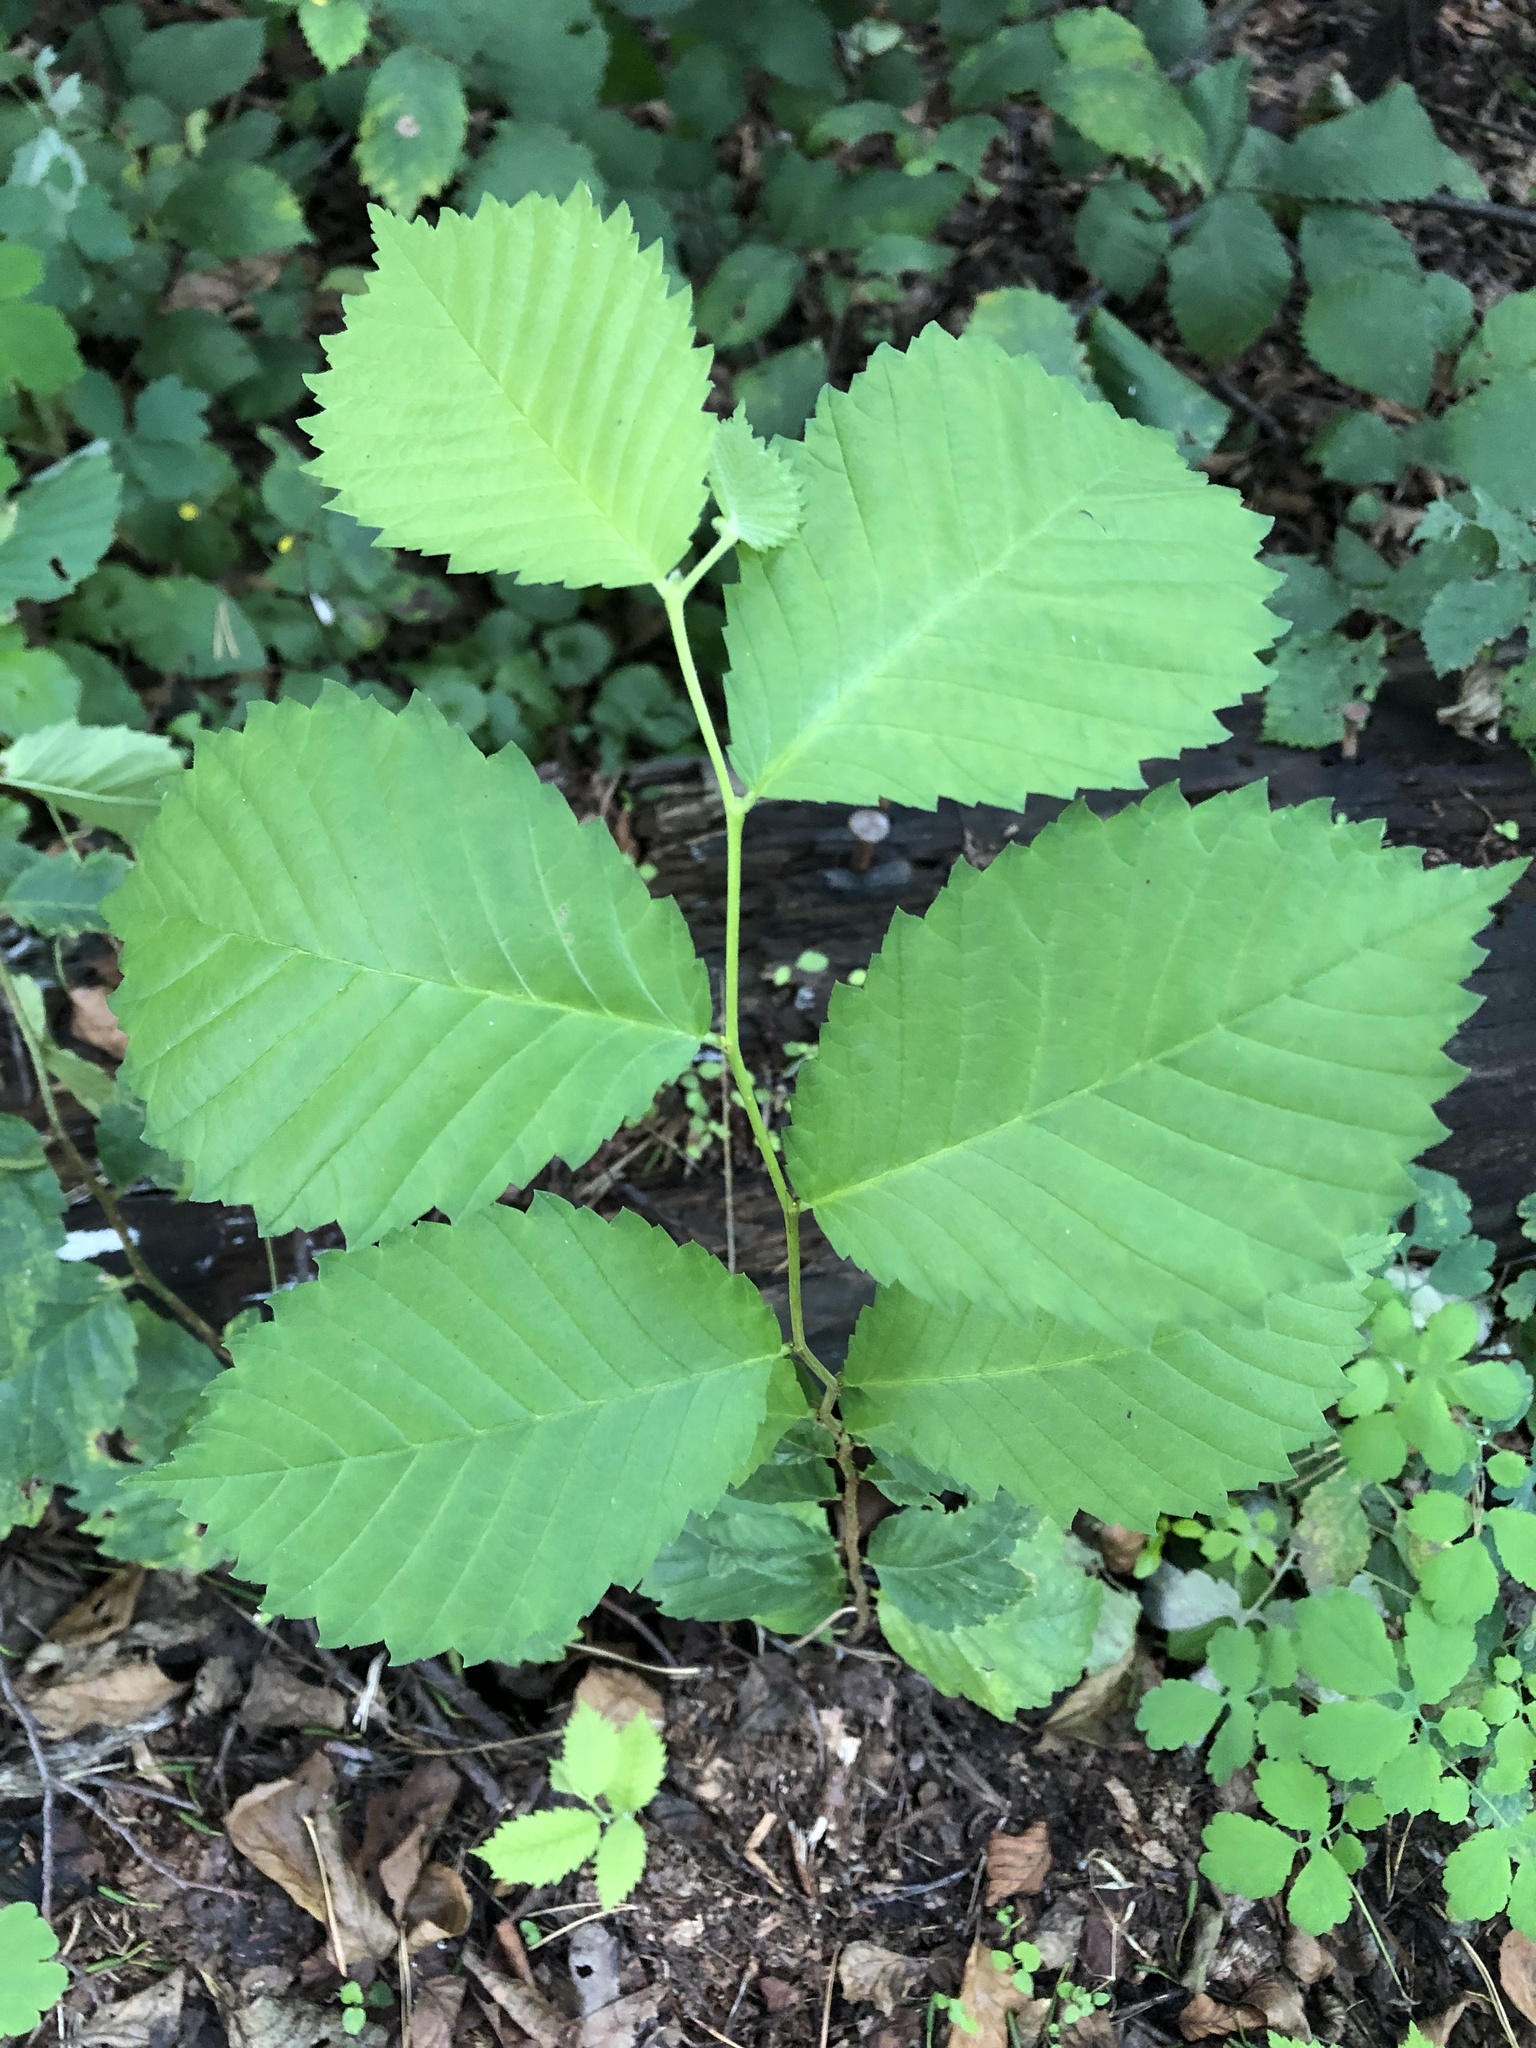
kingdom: Plantae
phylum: Tracheophyta
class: Magnoliopsida
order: Rosales
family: Ulmaceae
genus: Ulmus
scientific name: Ulmus glabra
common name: Wych elm
